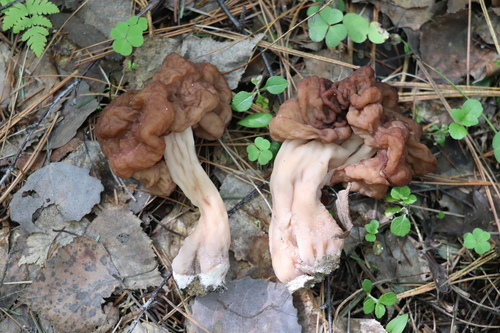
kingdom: Fungi
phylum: Ascomycota
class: Pezizomycetes
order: Pezizales
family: Discinaceae
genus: Gyromitra
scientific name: Gyromitra esculenta
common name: False morel
